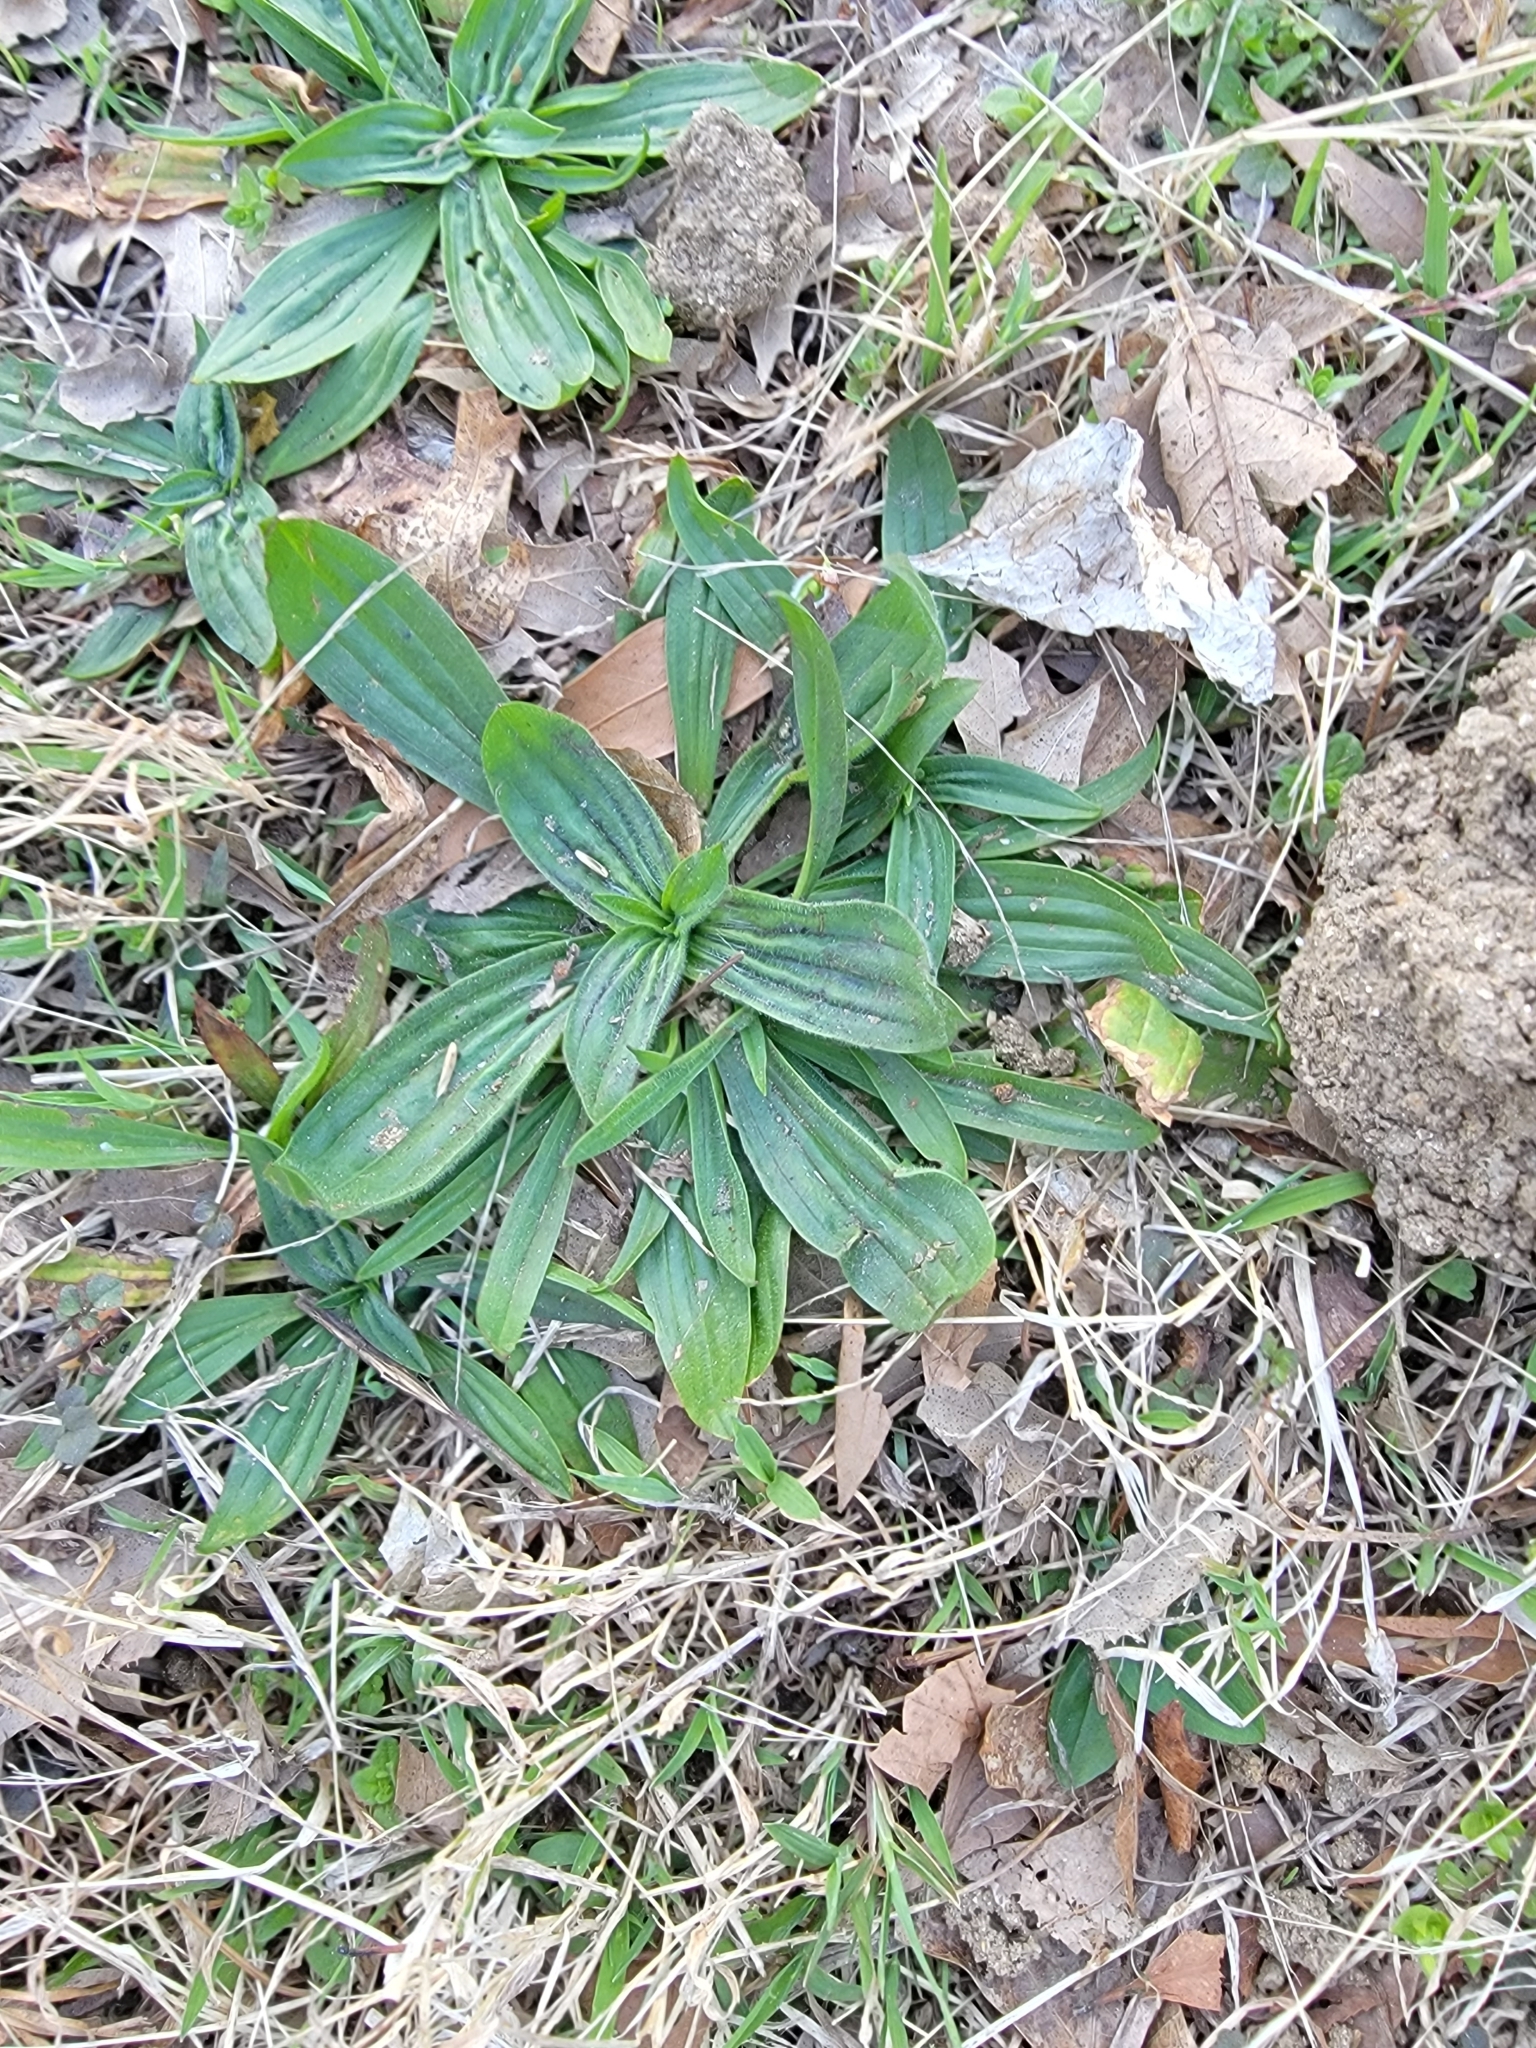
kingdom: Plantae
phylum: Tracheophyta
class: Magnoliopsida
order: Lamiales
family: Plantaginaceae
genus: Plantago
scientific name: Plantago lanceolata
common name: Ribwort plantain
